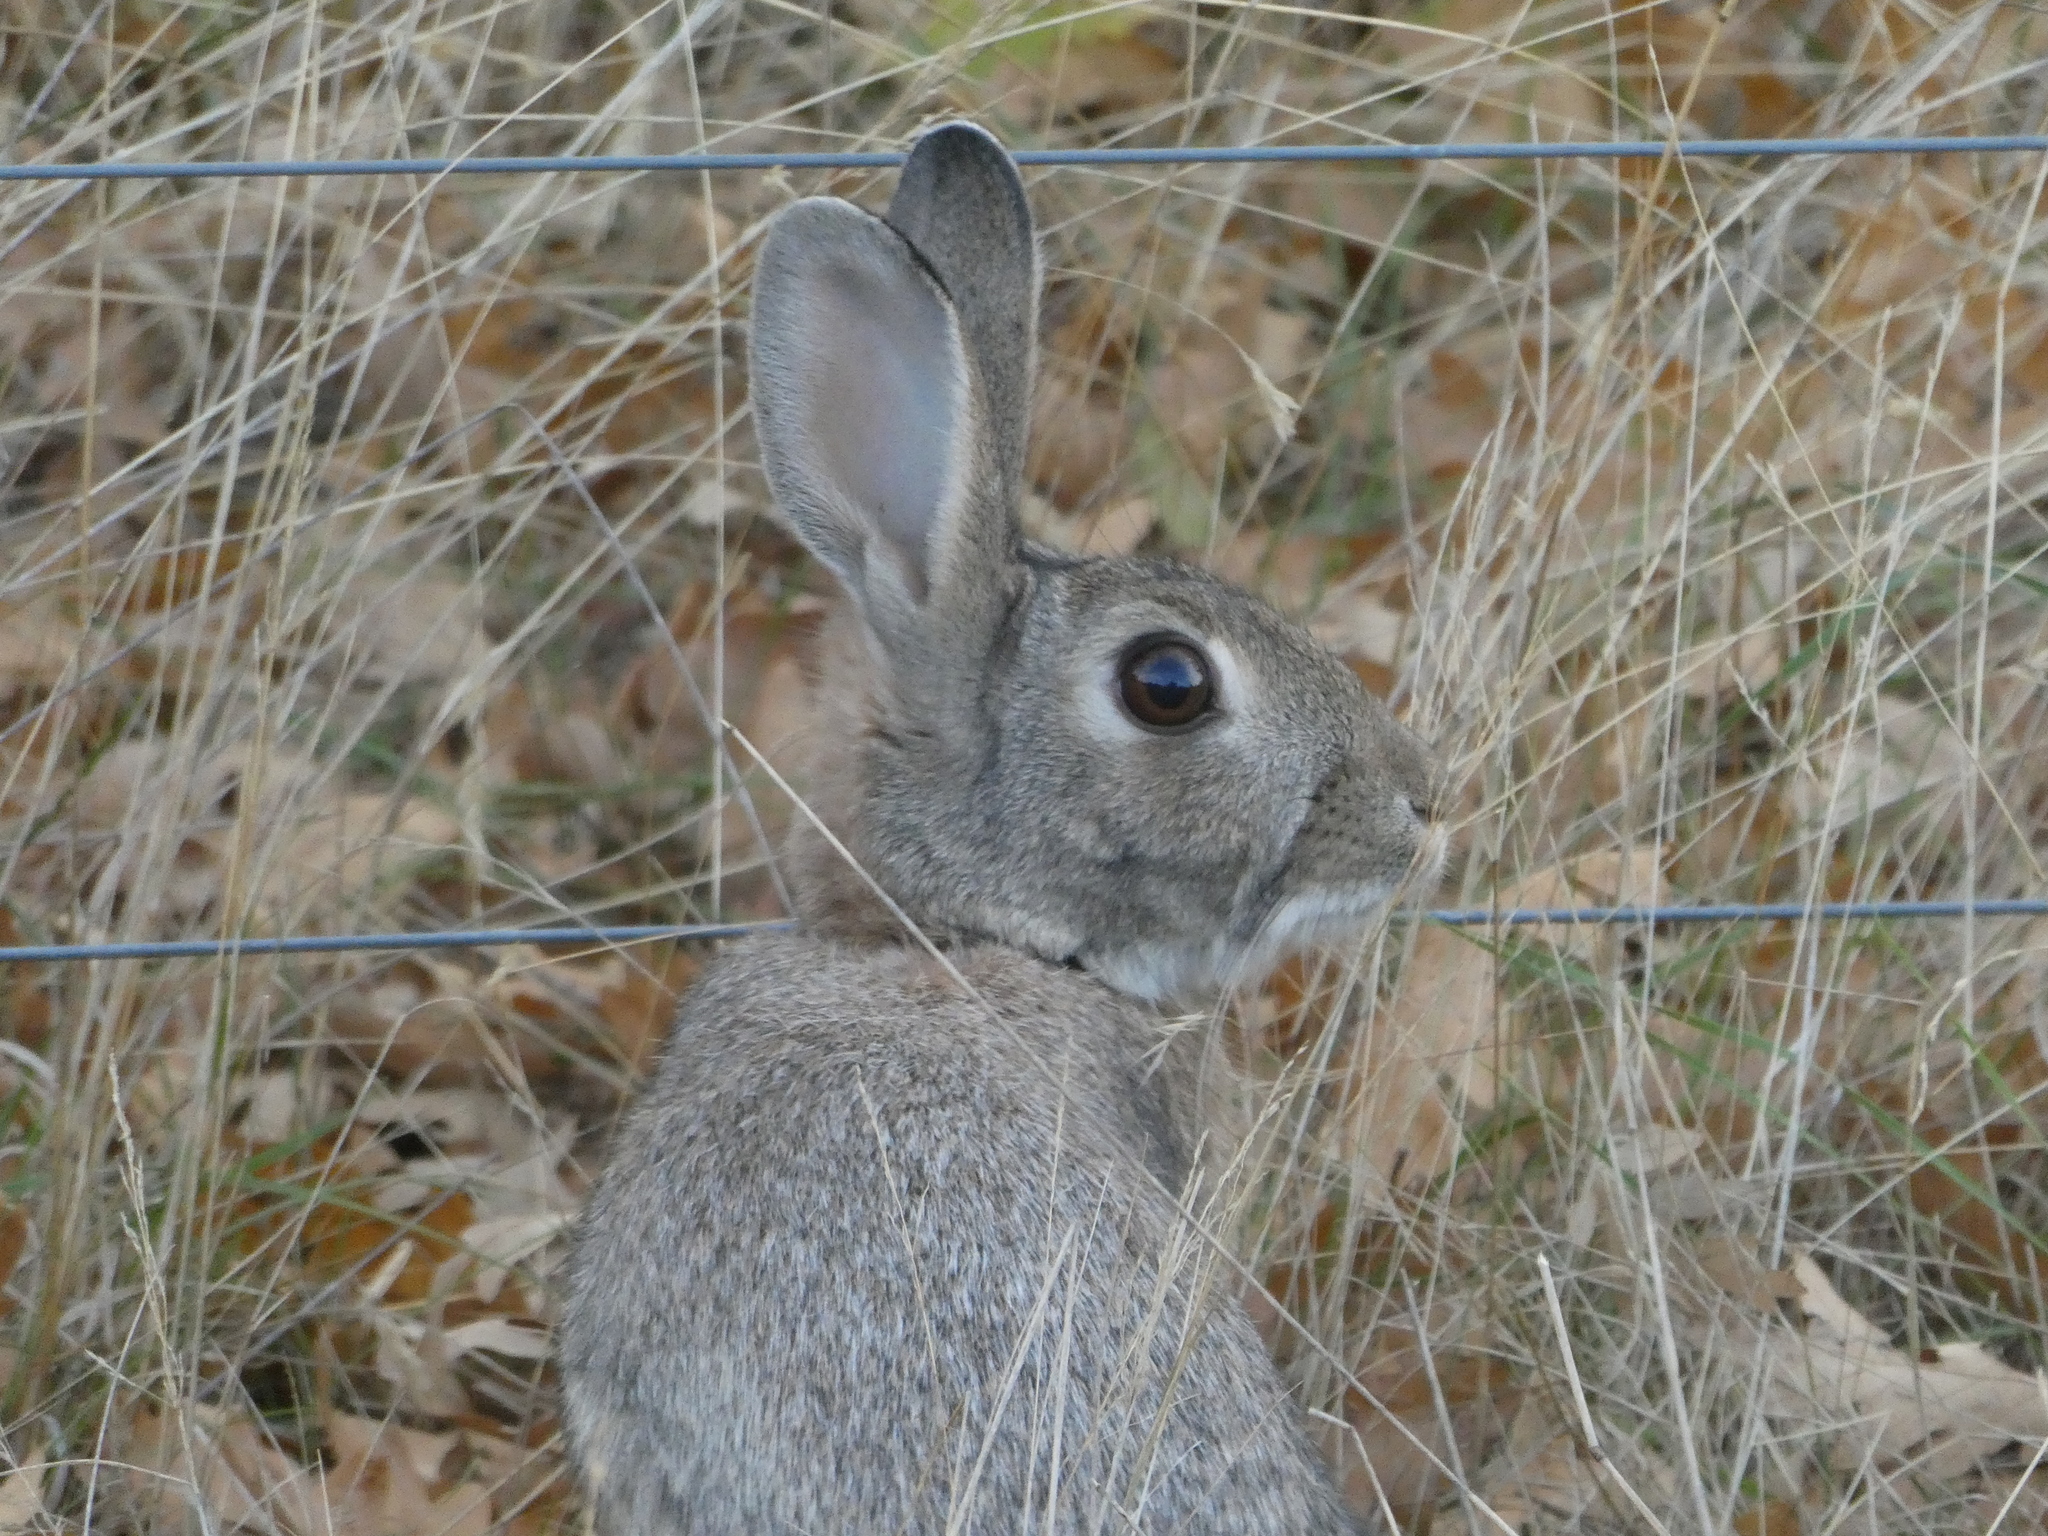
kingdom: Animalia
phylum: Chordata
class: Mammalia
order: Lagomorpha
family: Leporidae
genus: Oryctolagus
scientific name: Oryctolagus cuniculus
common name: European rabbit
